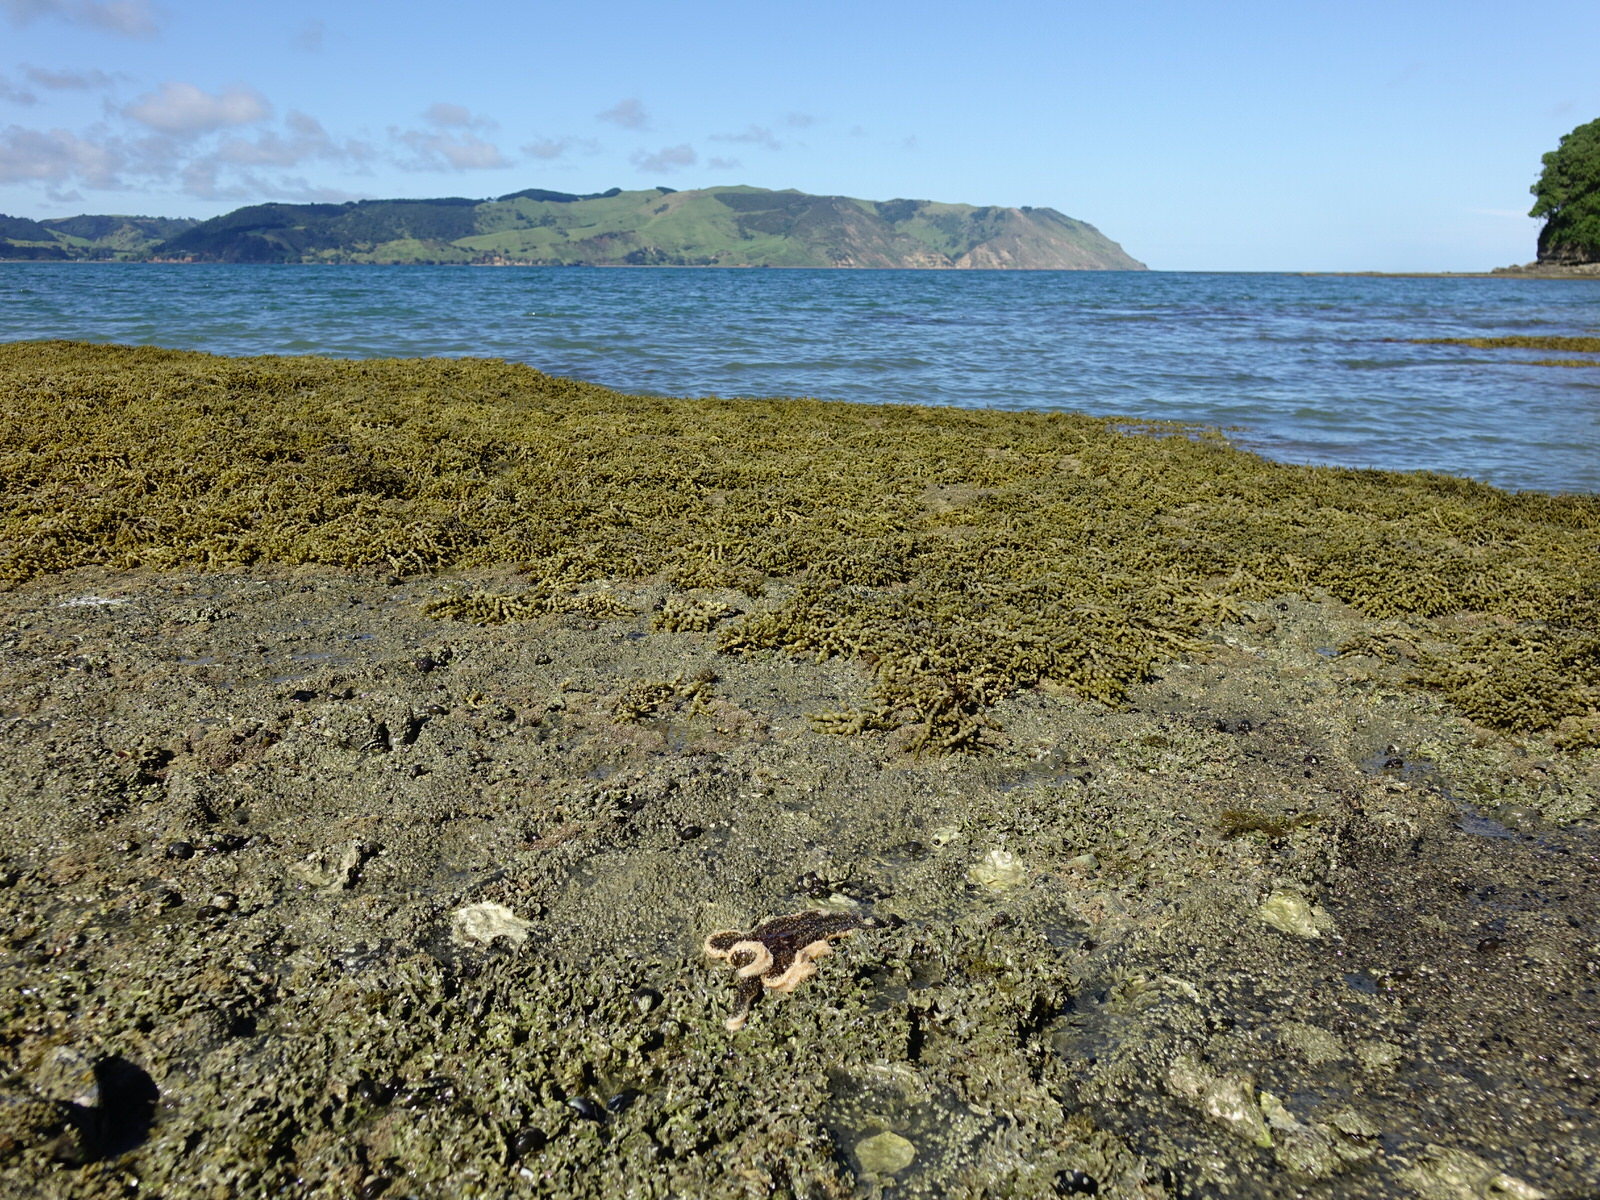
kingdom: Animalia
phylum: Echinodermata
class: Asteroidea
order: Forcipulatida
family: Asteriidae
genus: Coscinasterias
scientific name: Coscinasterias muricata
